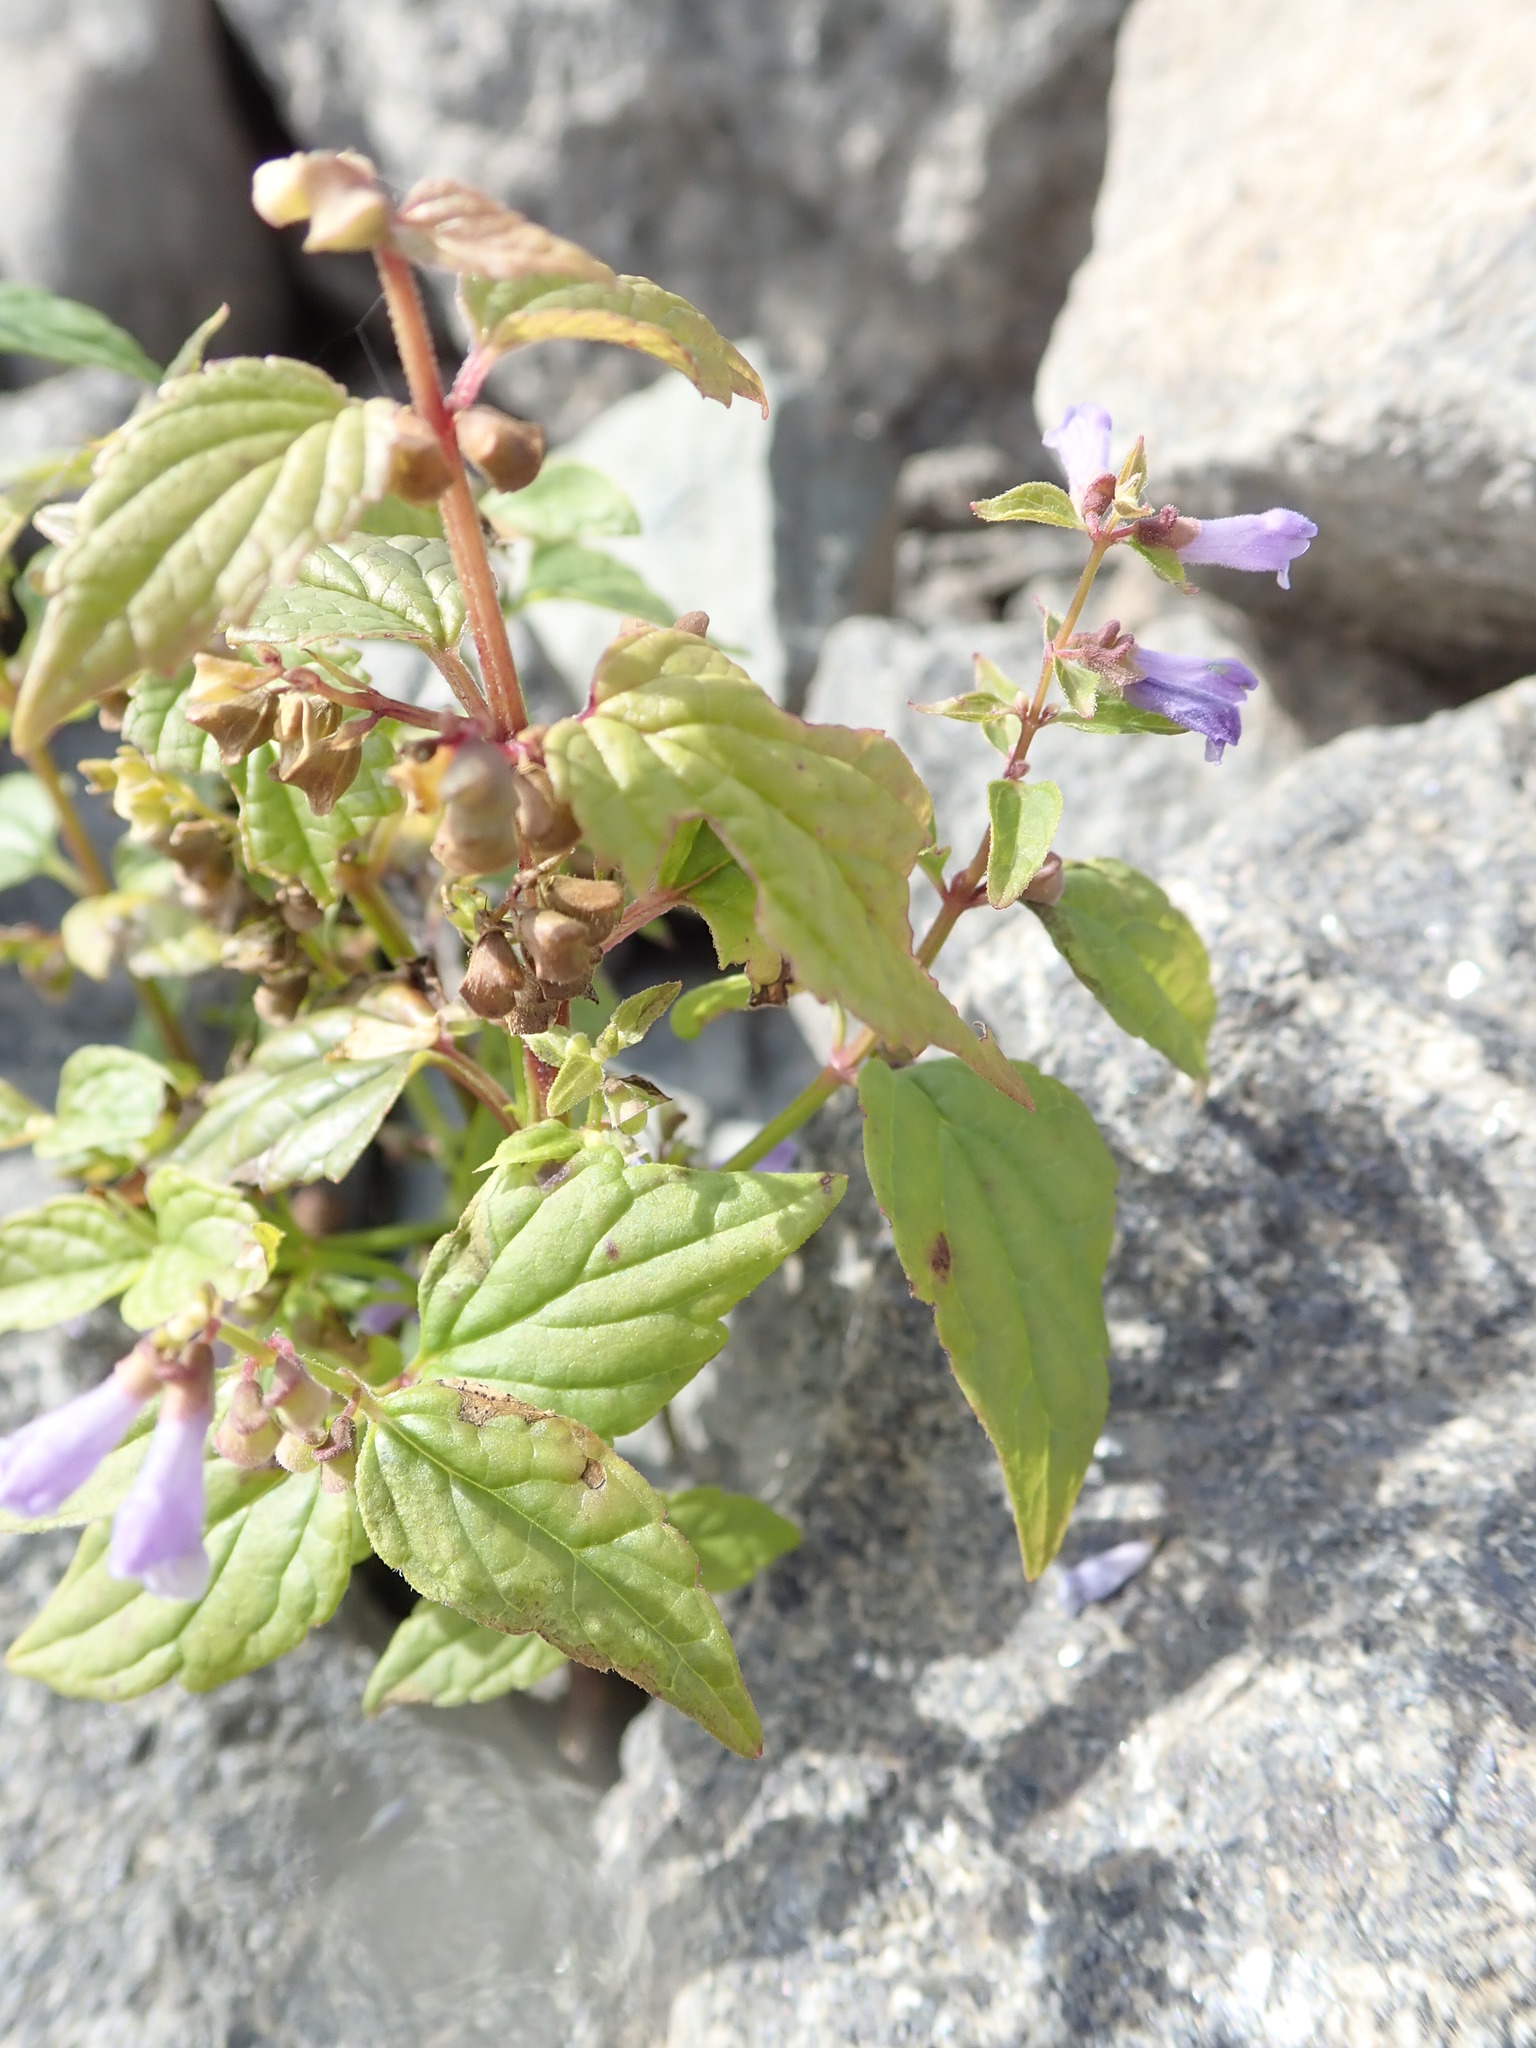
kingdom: Plantae
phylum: Tracheophyta
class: Magnoliopsida
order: Lamiales
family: Lamiaceae
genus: Scutellaria
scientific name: Scutellaria lateriflora
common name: Blue skullcap
